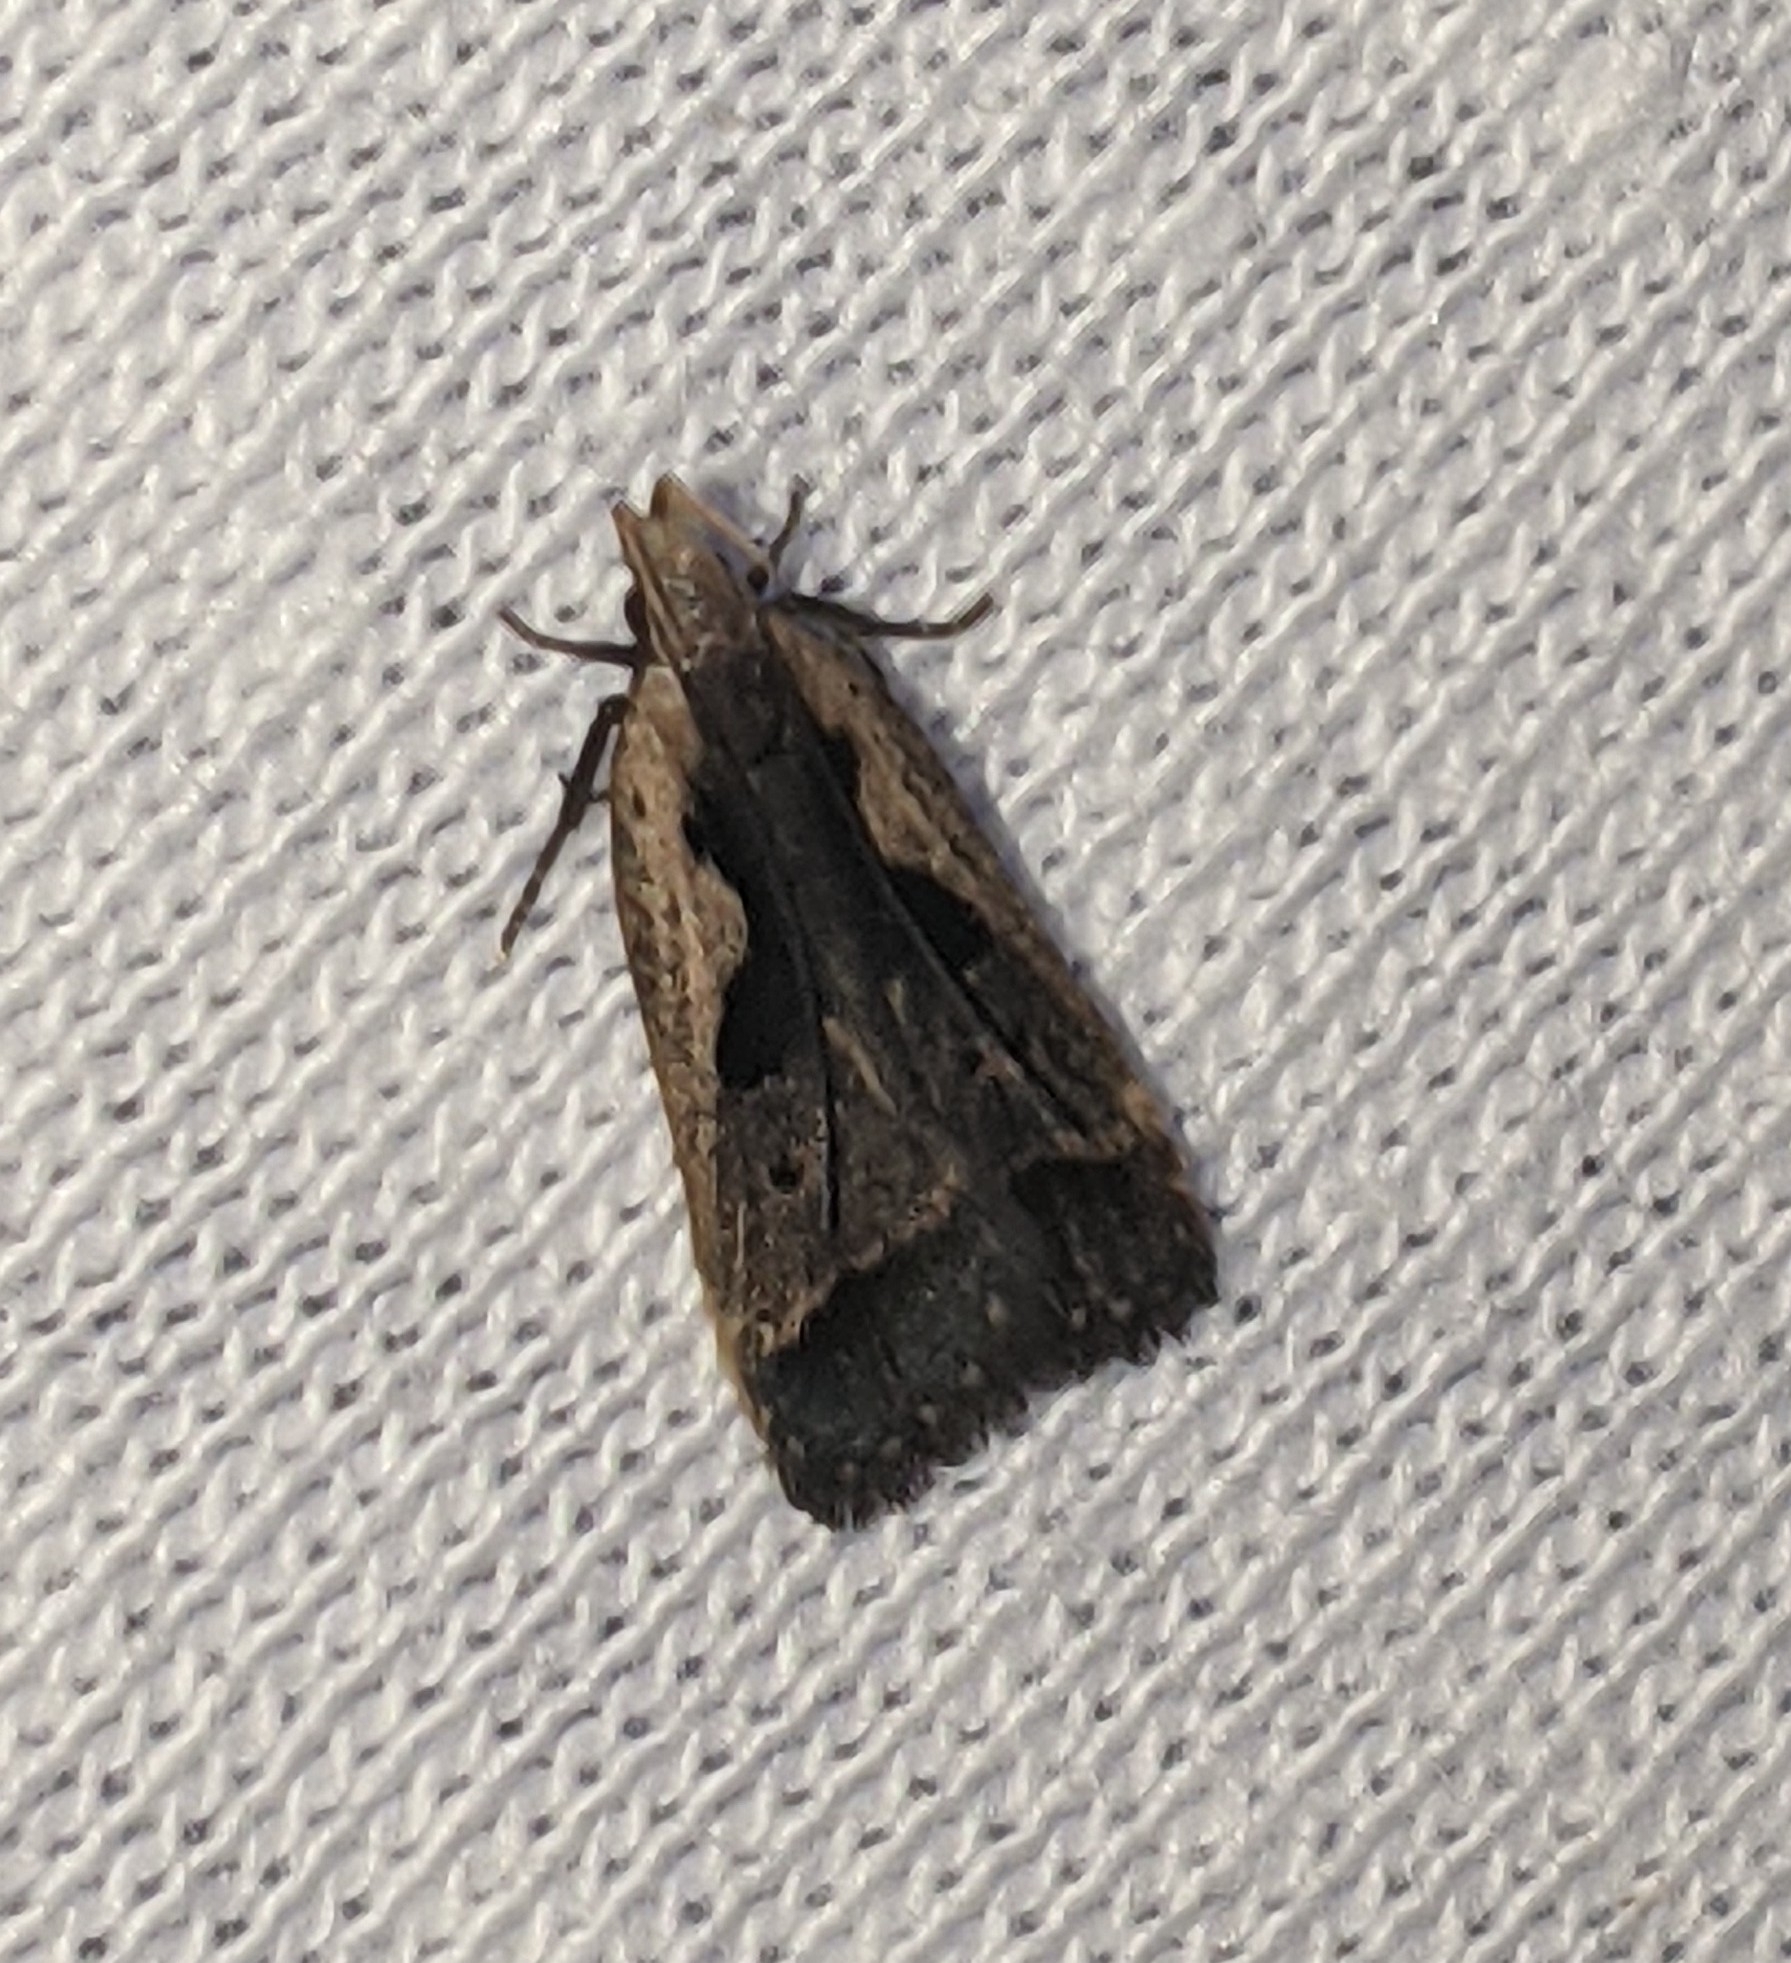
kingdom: Animalia
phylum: Arthropoda
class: Insecta
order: Lepidoptera
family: Gelechiidae
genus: Dichomeris
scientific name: Dichomeris bilobella
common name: Bilobed dichomeris moth
